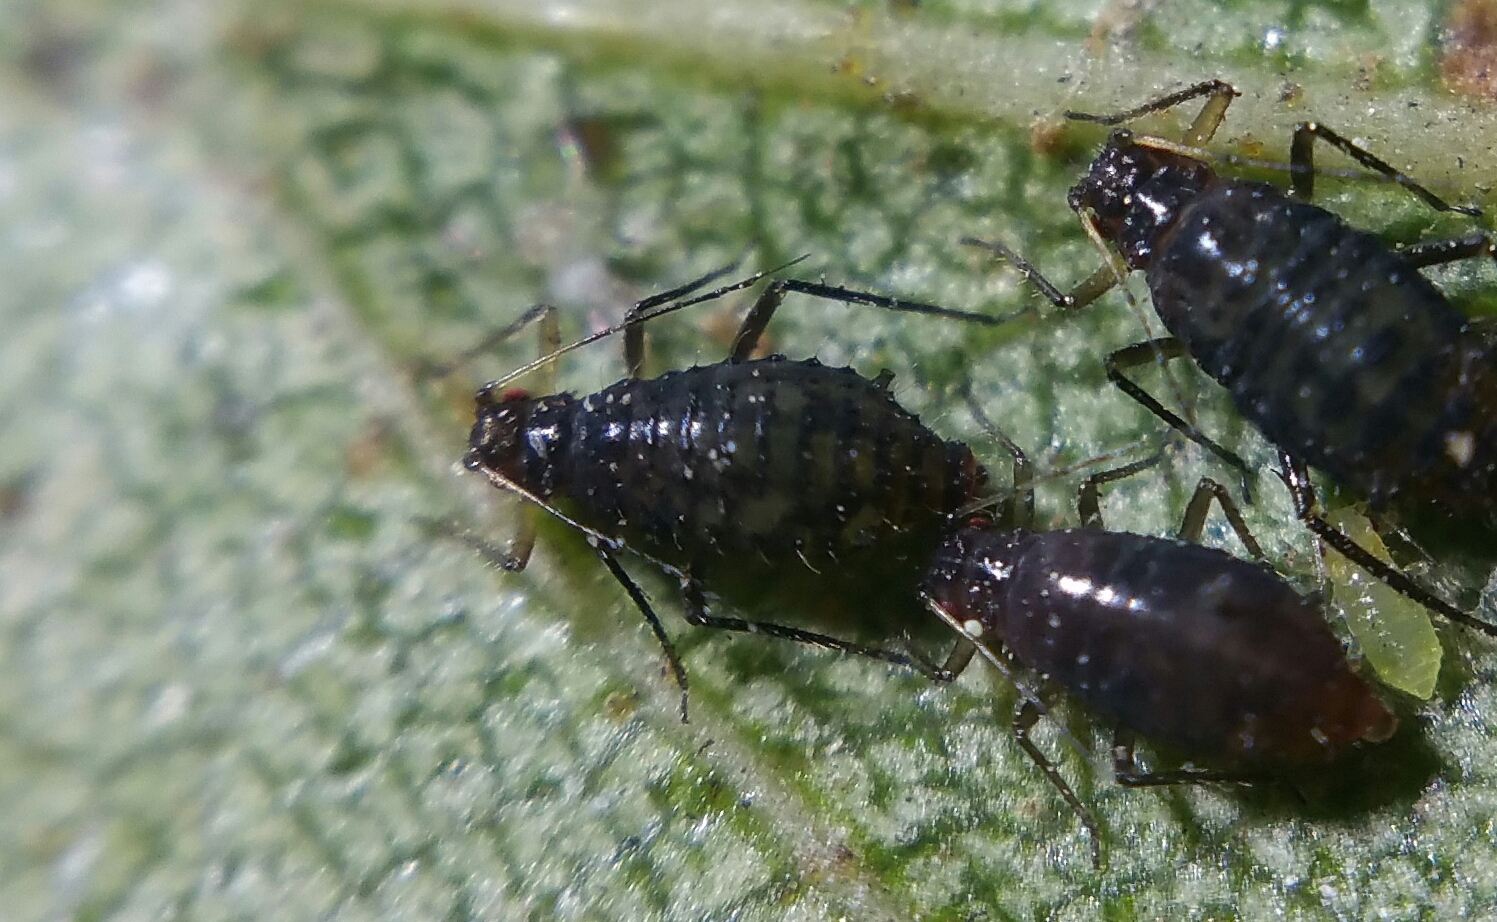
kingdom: Animalia
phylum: Arthropoda
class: Insecta
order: Hemiptera
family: Aphididae
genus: Callipterinella
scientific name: Callipterinella calliptera
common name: Aphid
